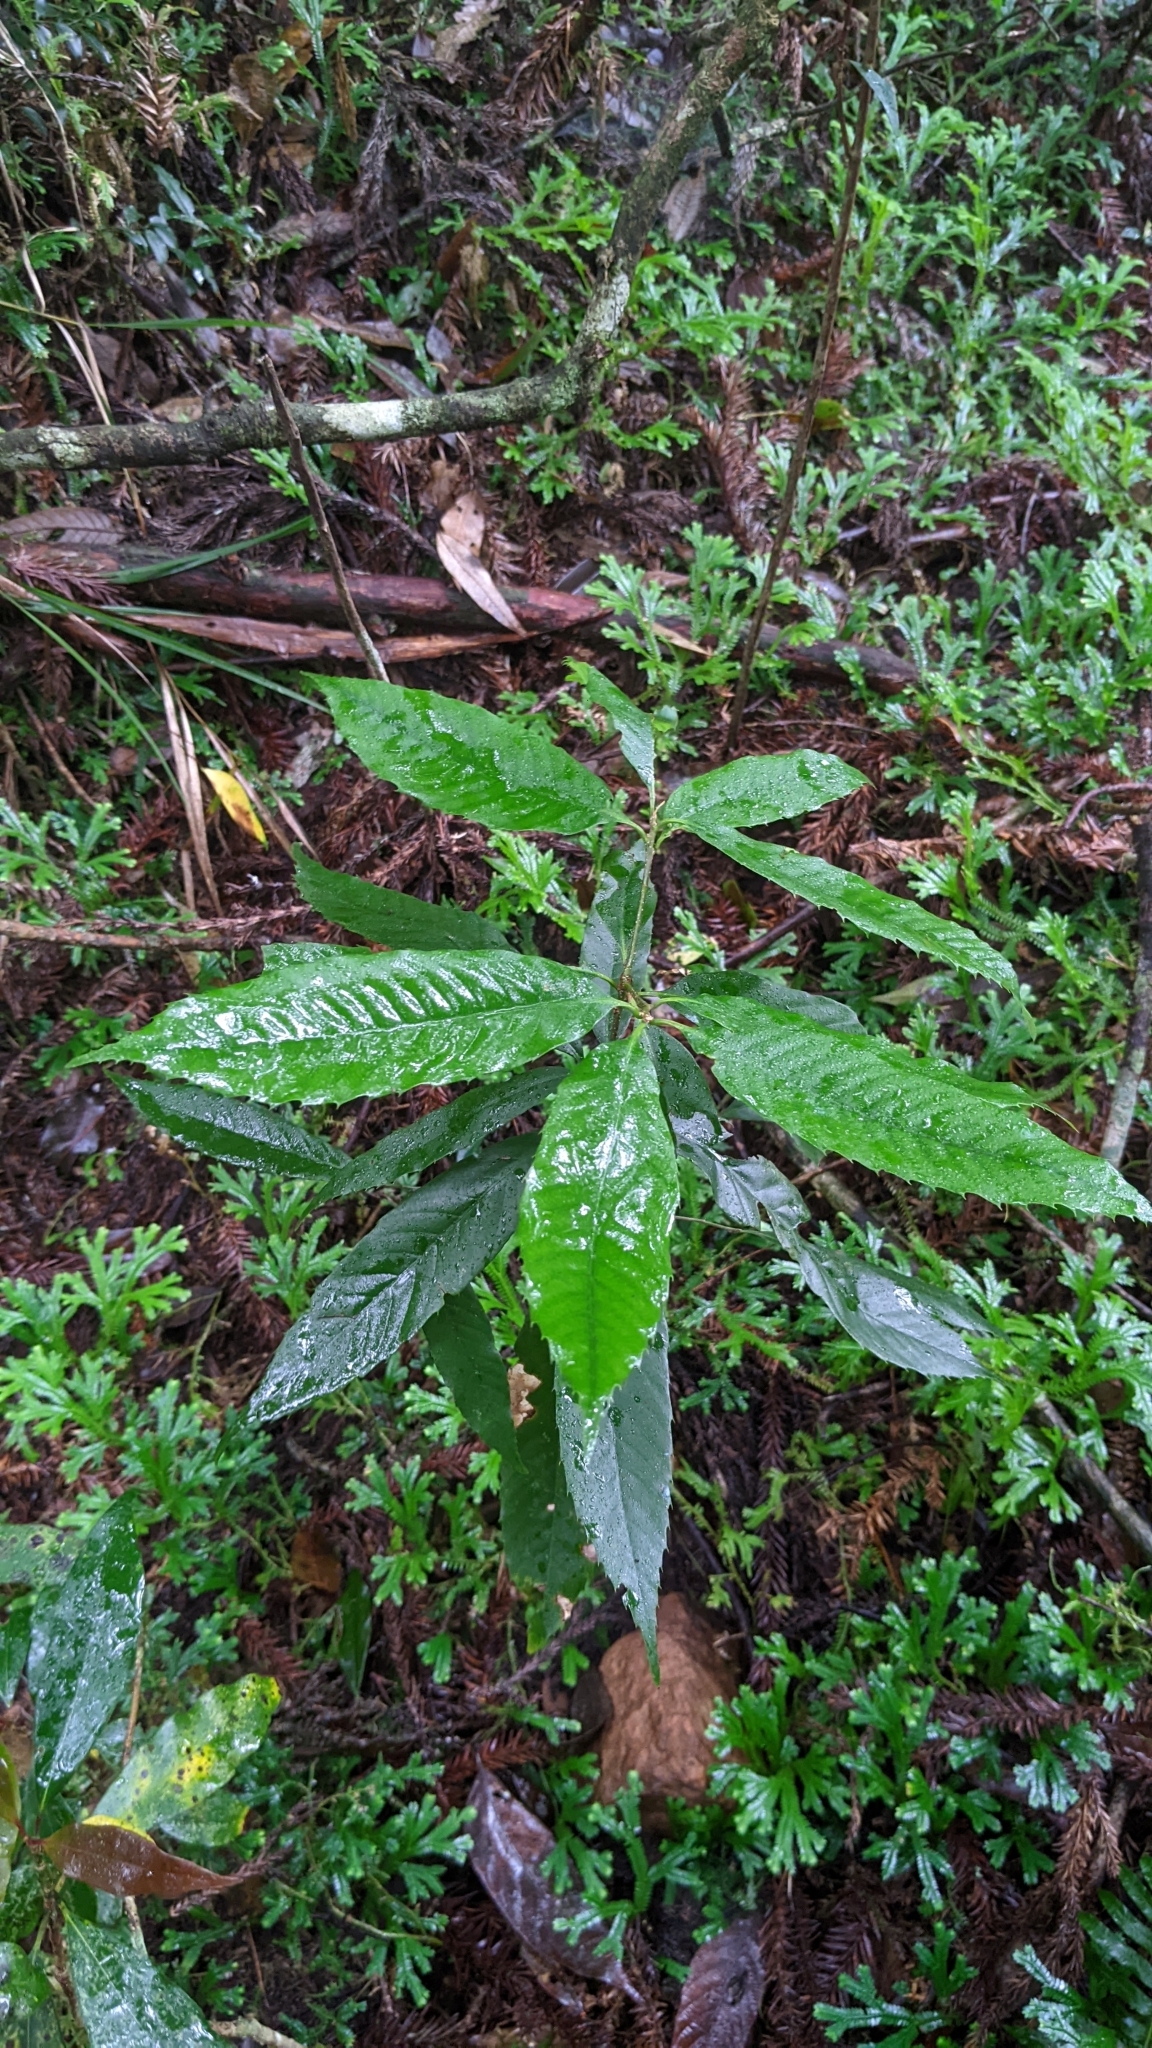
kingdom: Plantae
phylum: Tracheophyta
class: Magnoliopsida
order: Fagales
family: Fagaceae
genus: Quercus
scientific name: Quercus stenophylloides
